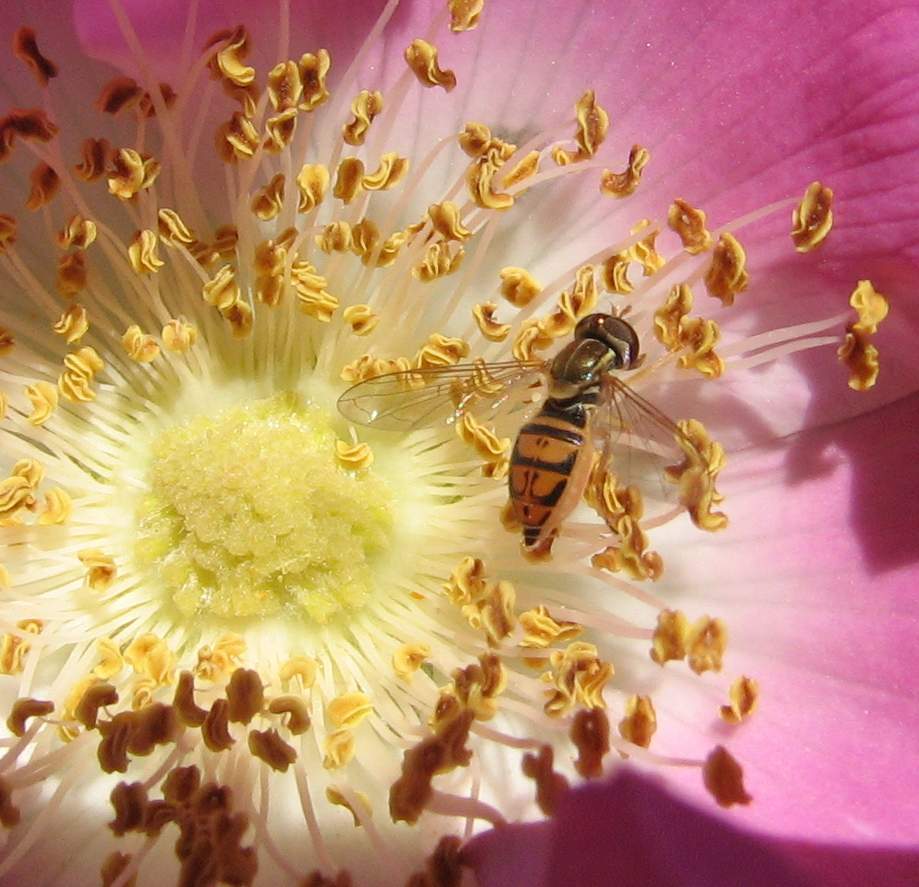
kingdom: Animalia
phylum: Arthropoda
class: Insecta
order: Diptera
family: Syrphidae
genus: Toxomerus
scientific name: Toxomerus marginatus
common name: Syrphid fly
